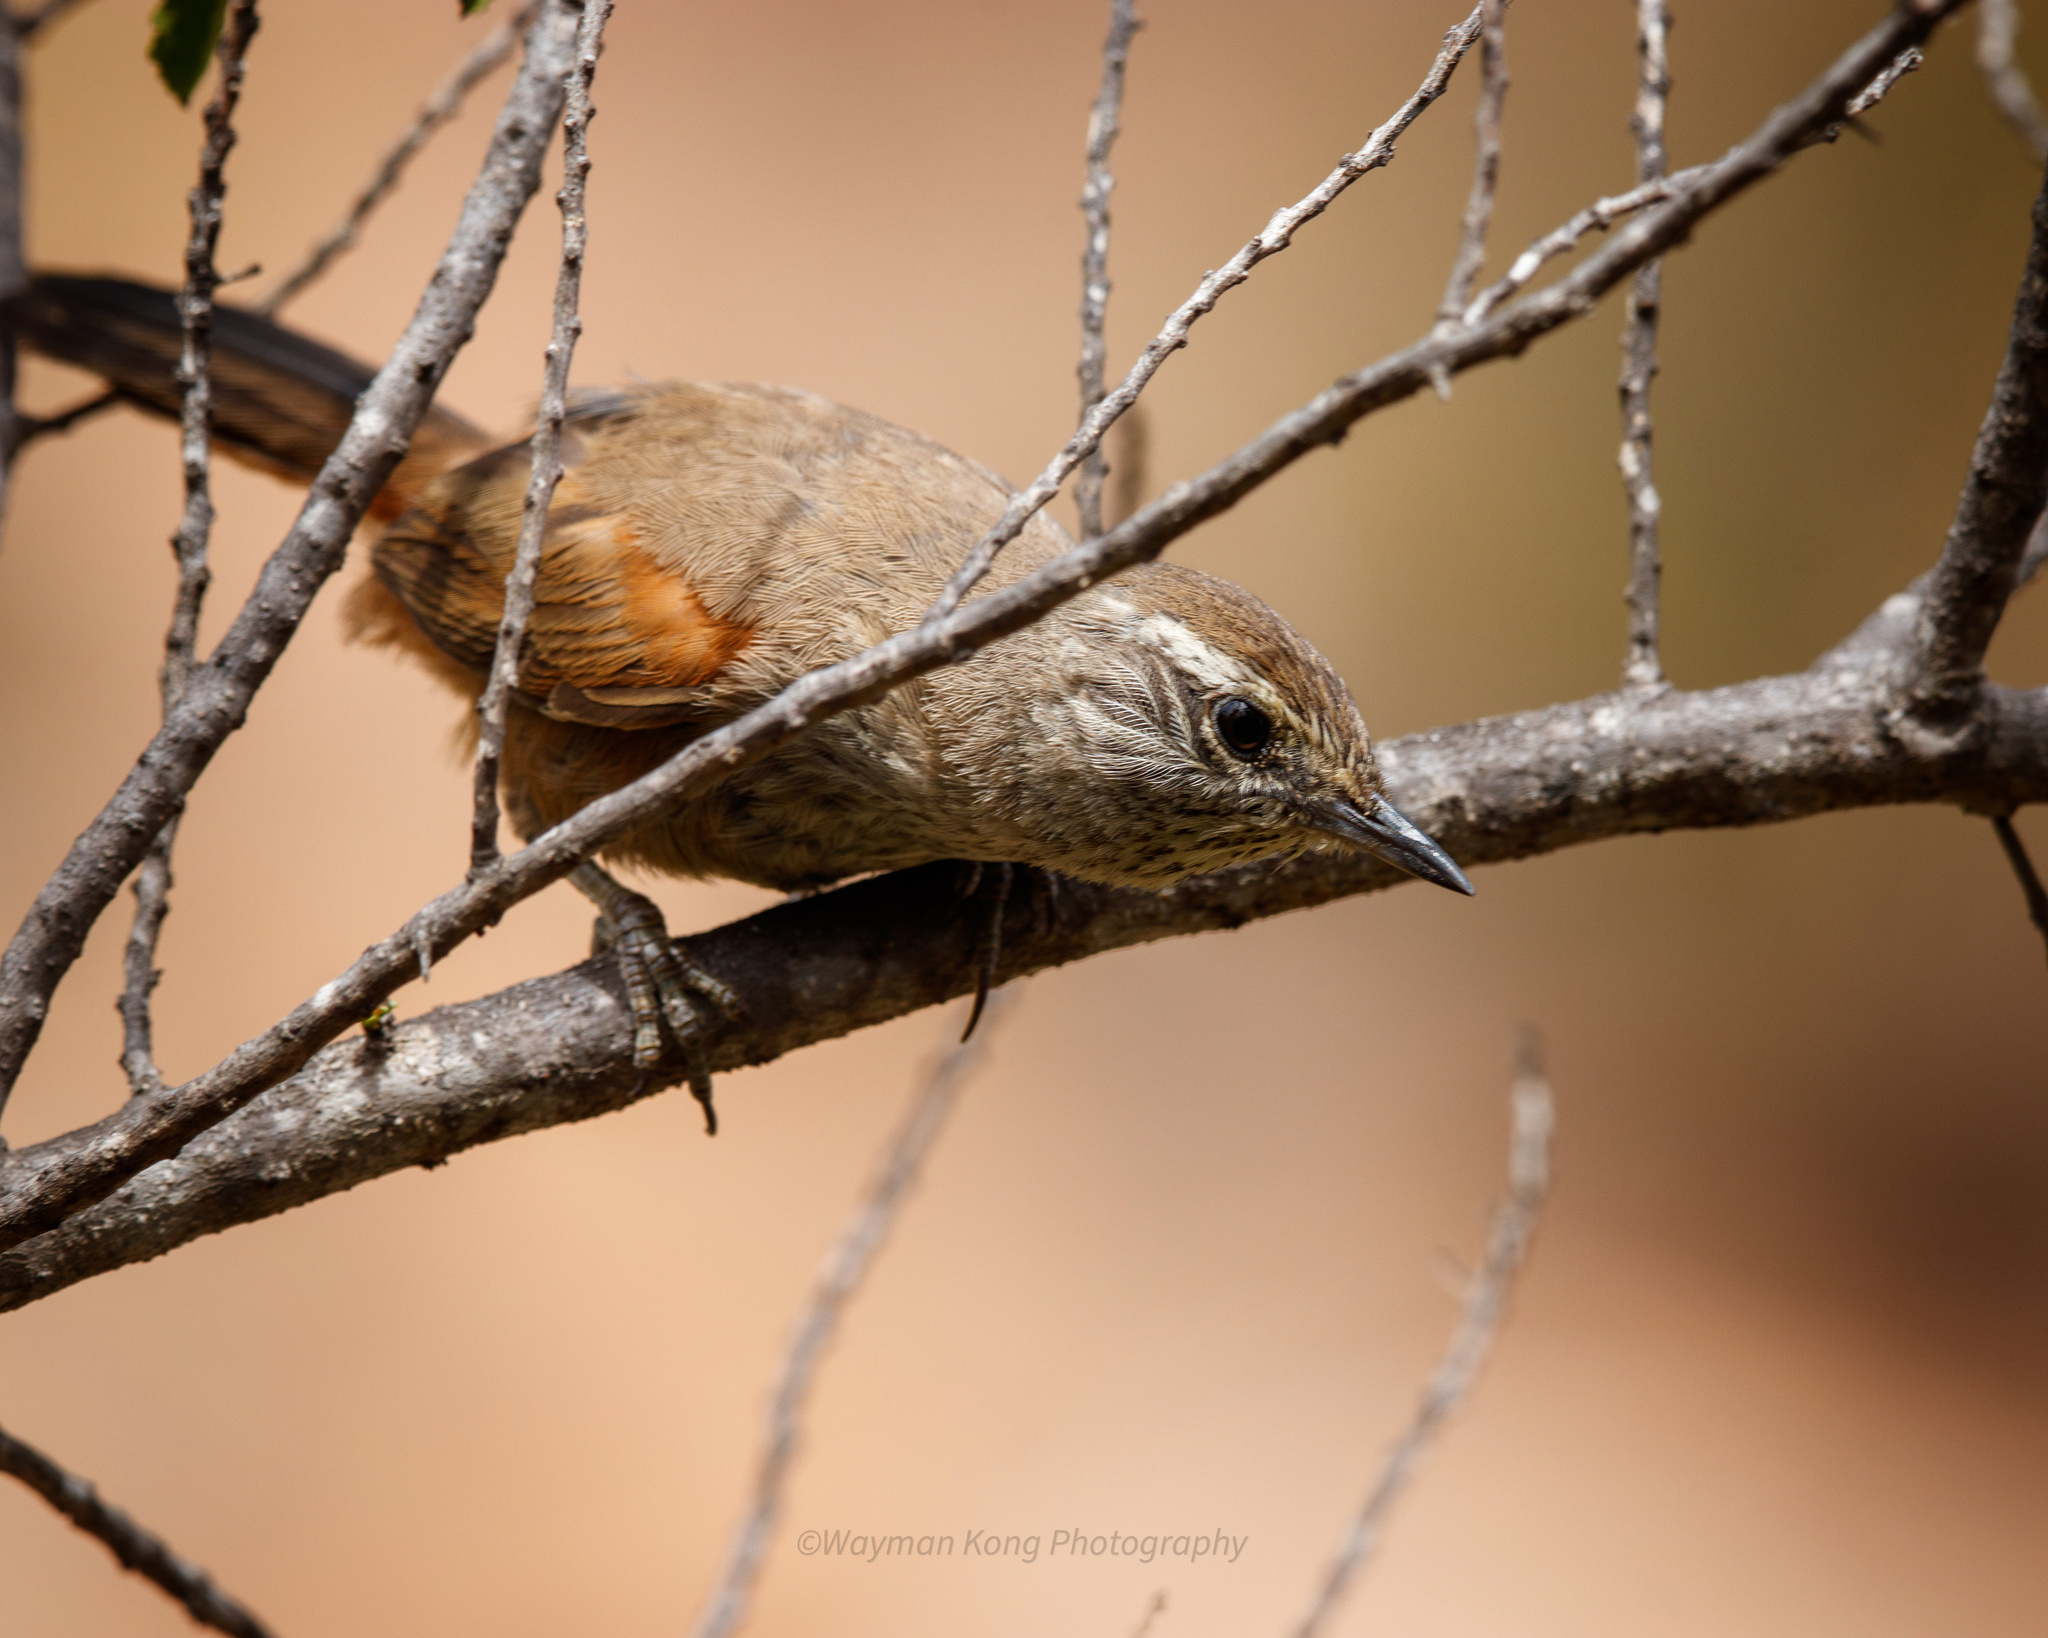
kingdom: Animalia
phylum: Chordata
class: Aves
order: Passeriformes
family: Furnariidae
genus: Asthenes
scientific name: Asthenes humicola
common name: Dusky-tailed canastero
